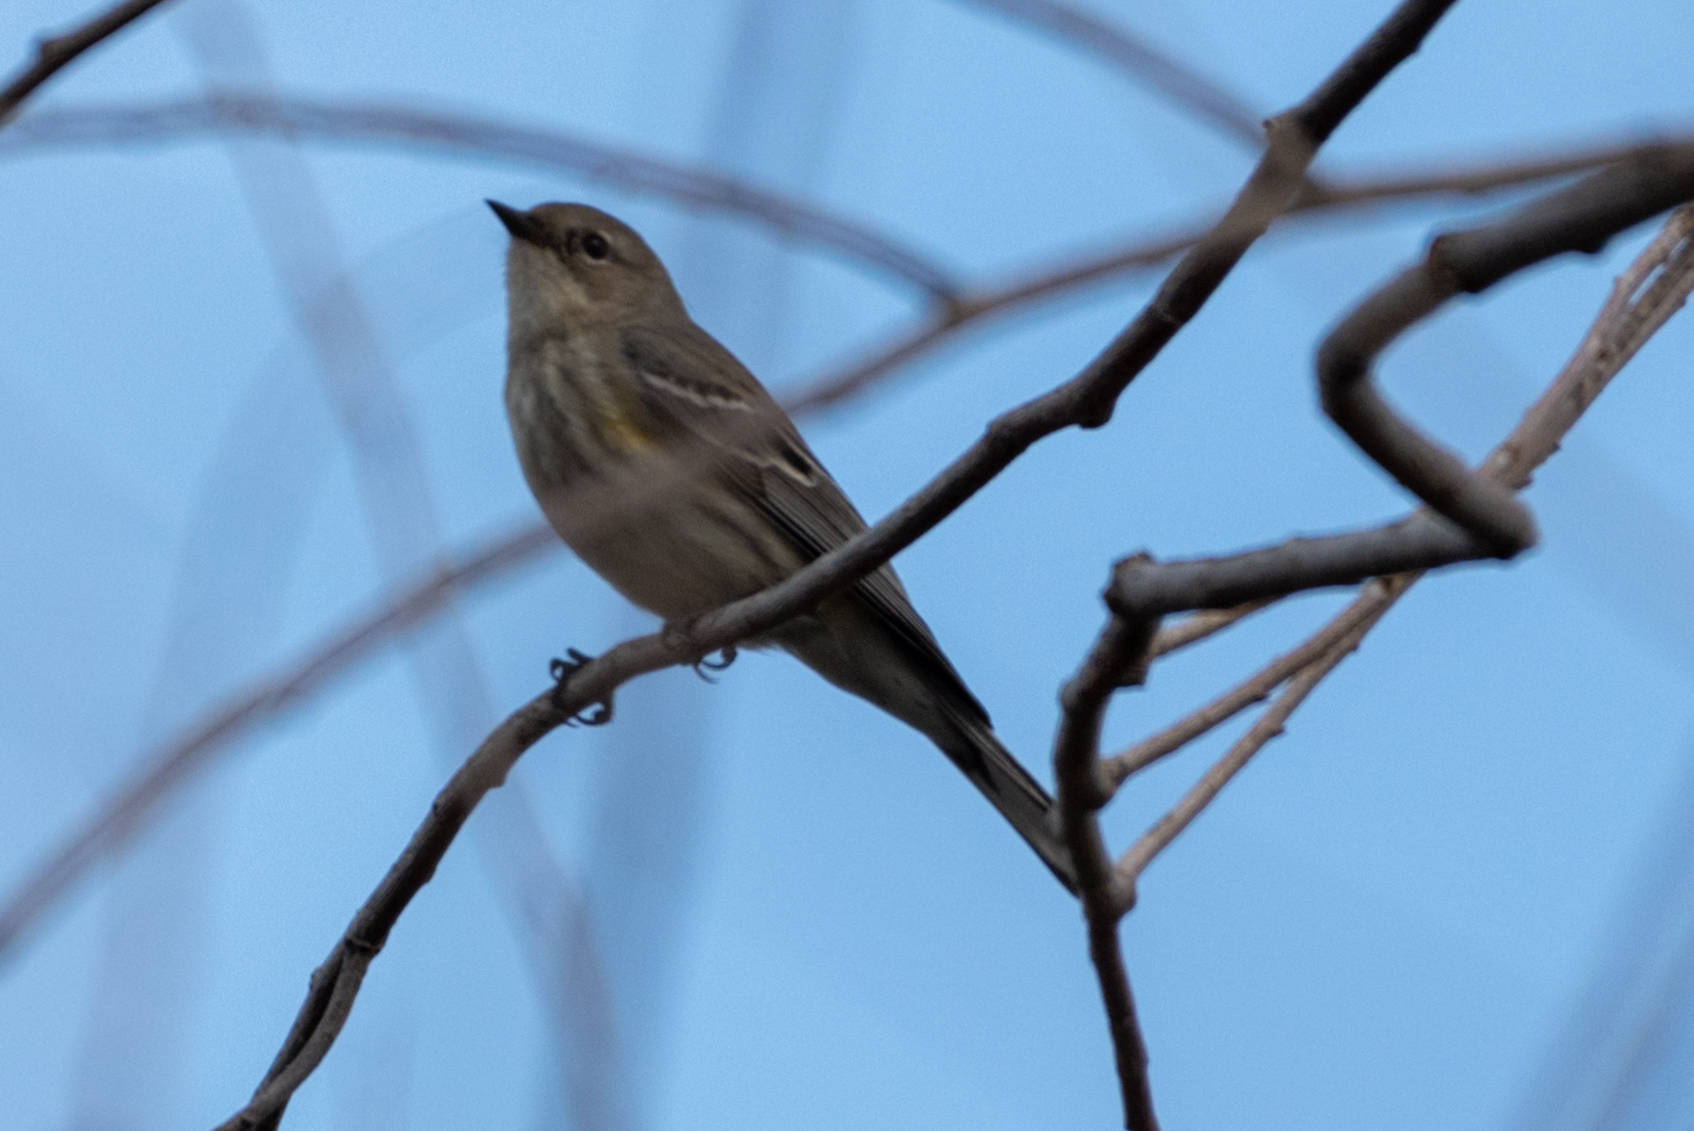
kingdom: Animalia
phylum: Chordata
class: Aves
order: Passeriformes
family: Parulidae
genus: Setophaga
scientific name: Setophaga coronata
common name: Myrtle warbler
